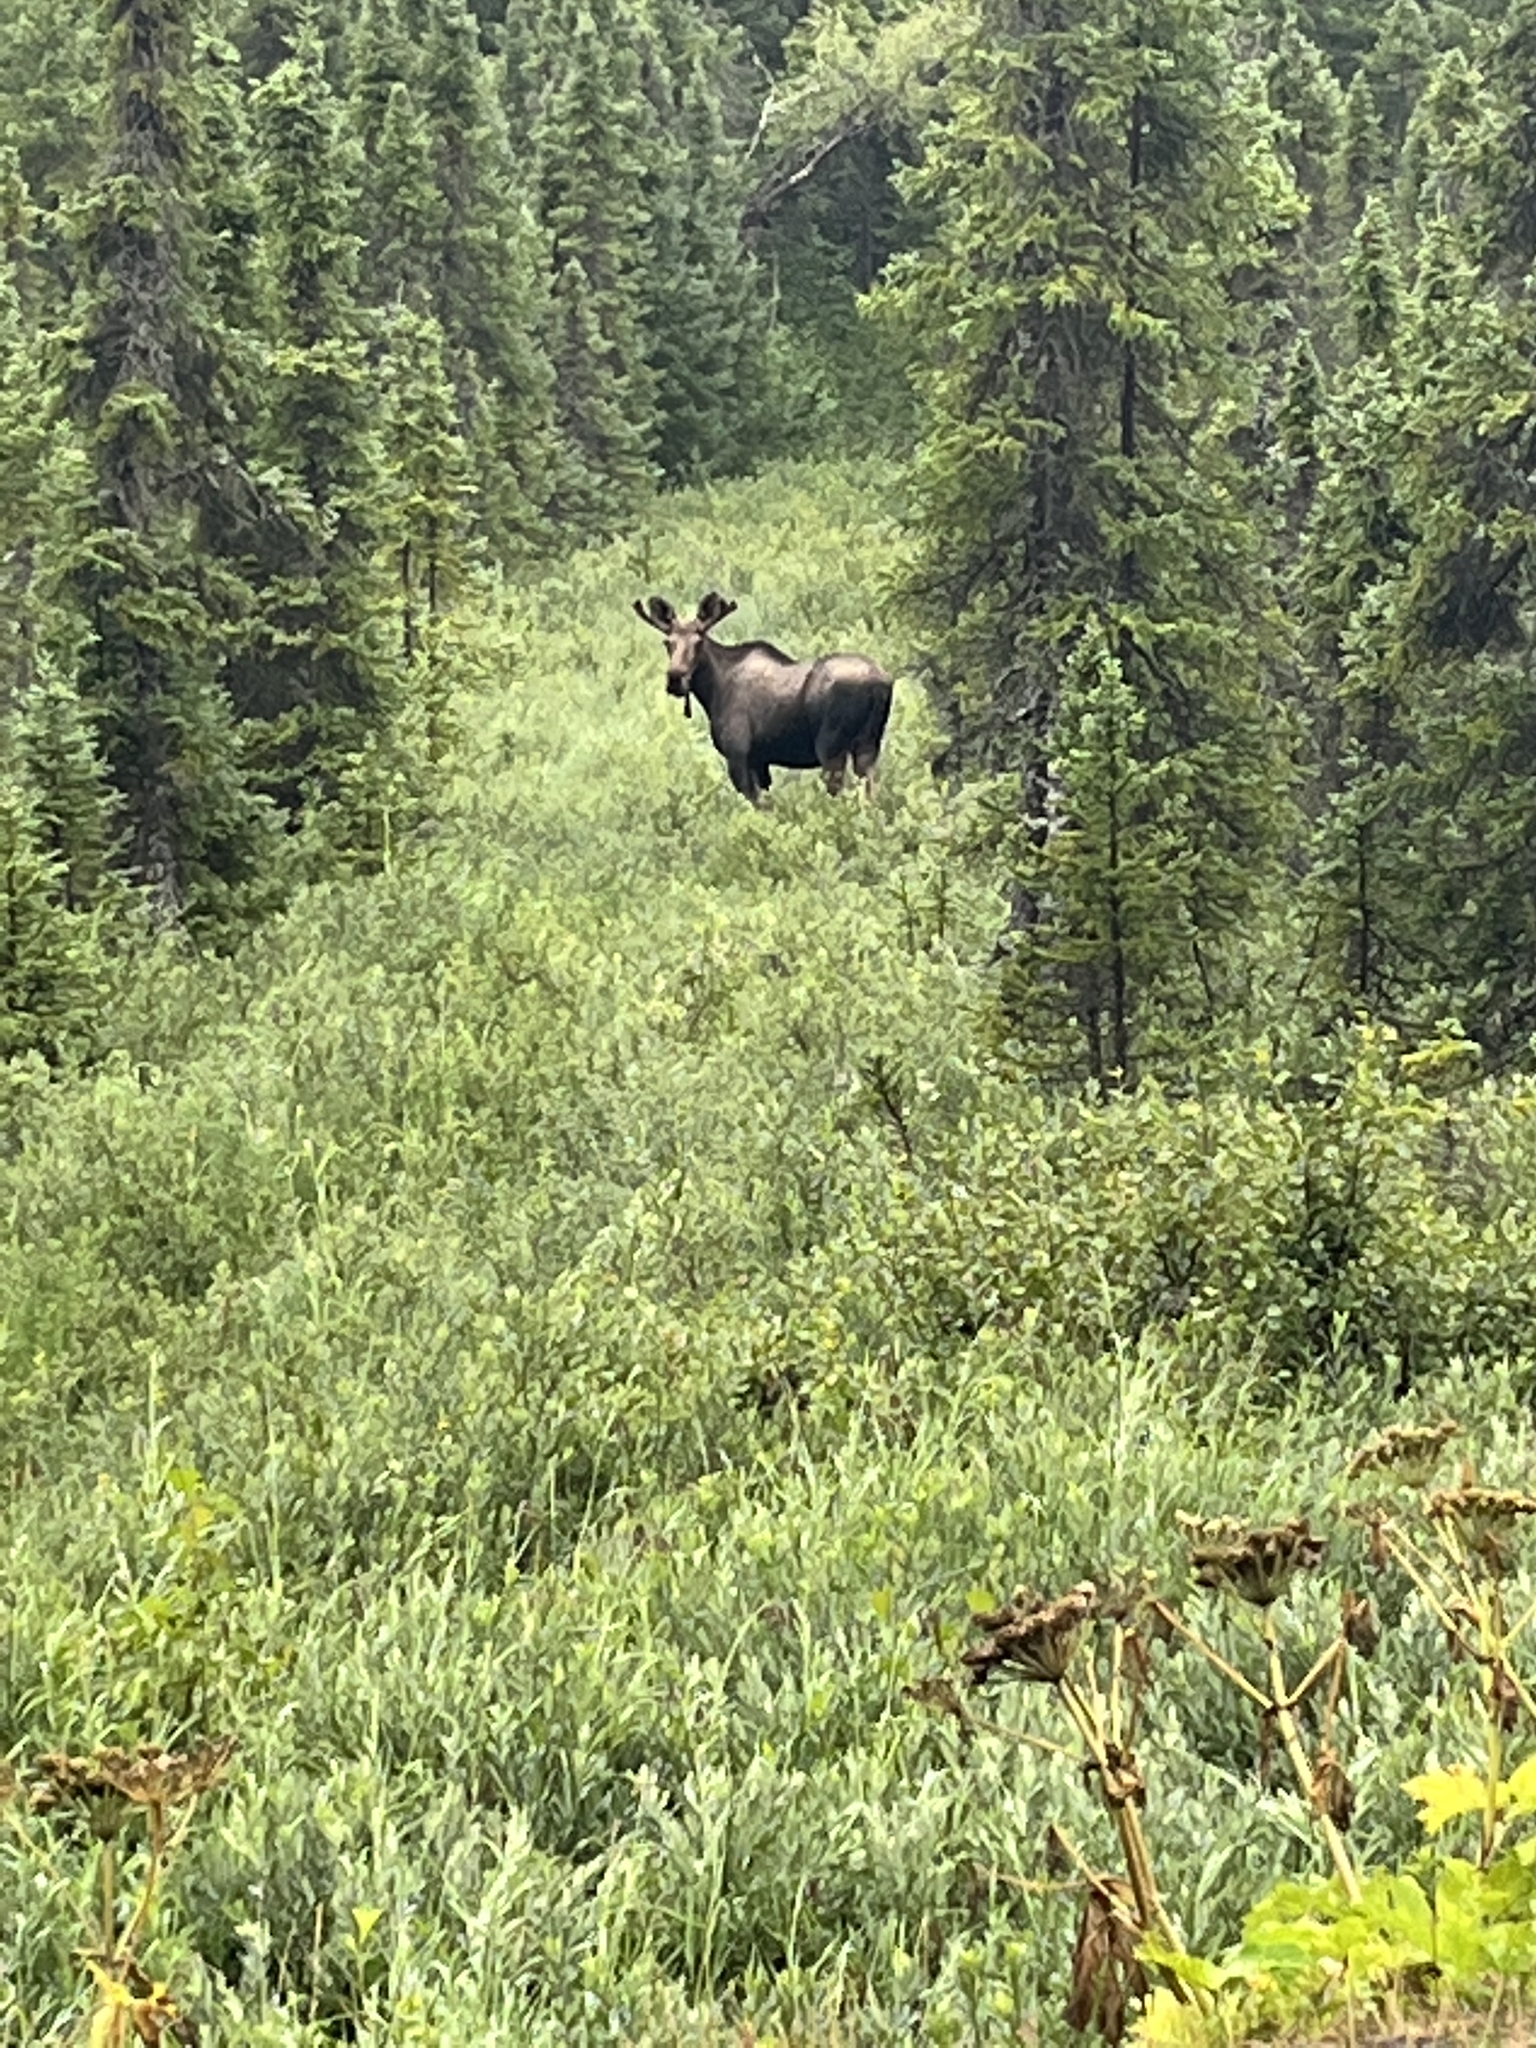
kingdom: Animalia
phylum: Chordata
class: Mammalia
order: Artiodactyla
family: Cervidae
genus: Alces
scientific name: Alces alces
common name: Moose
